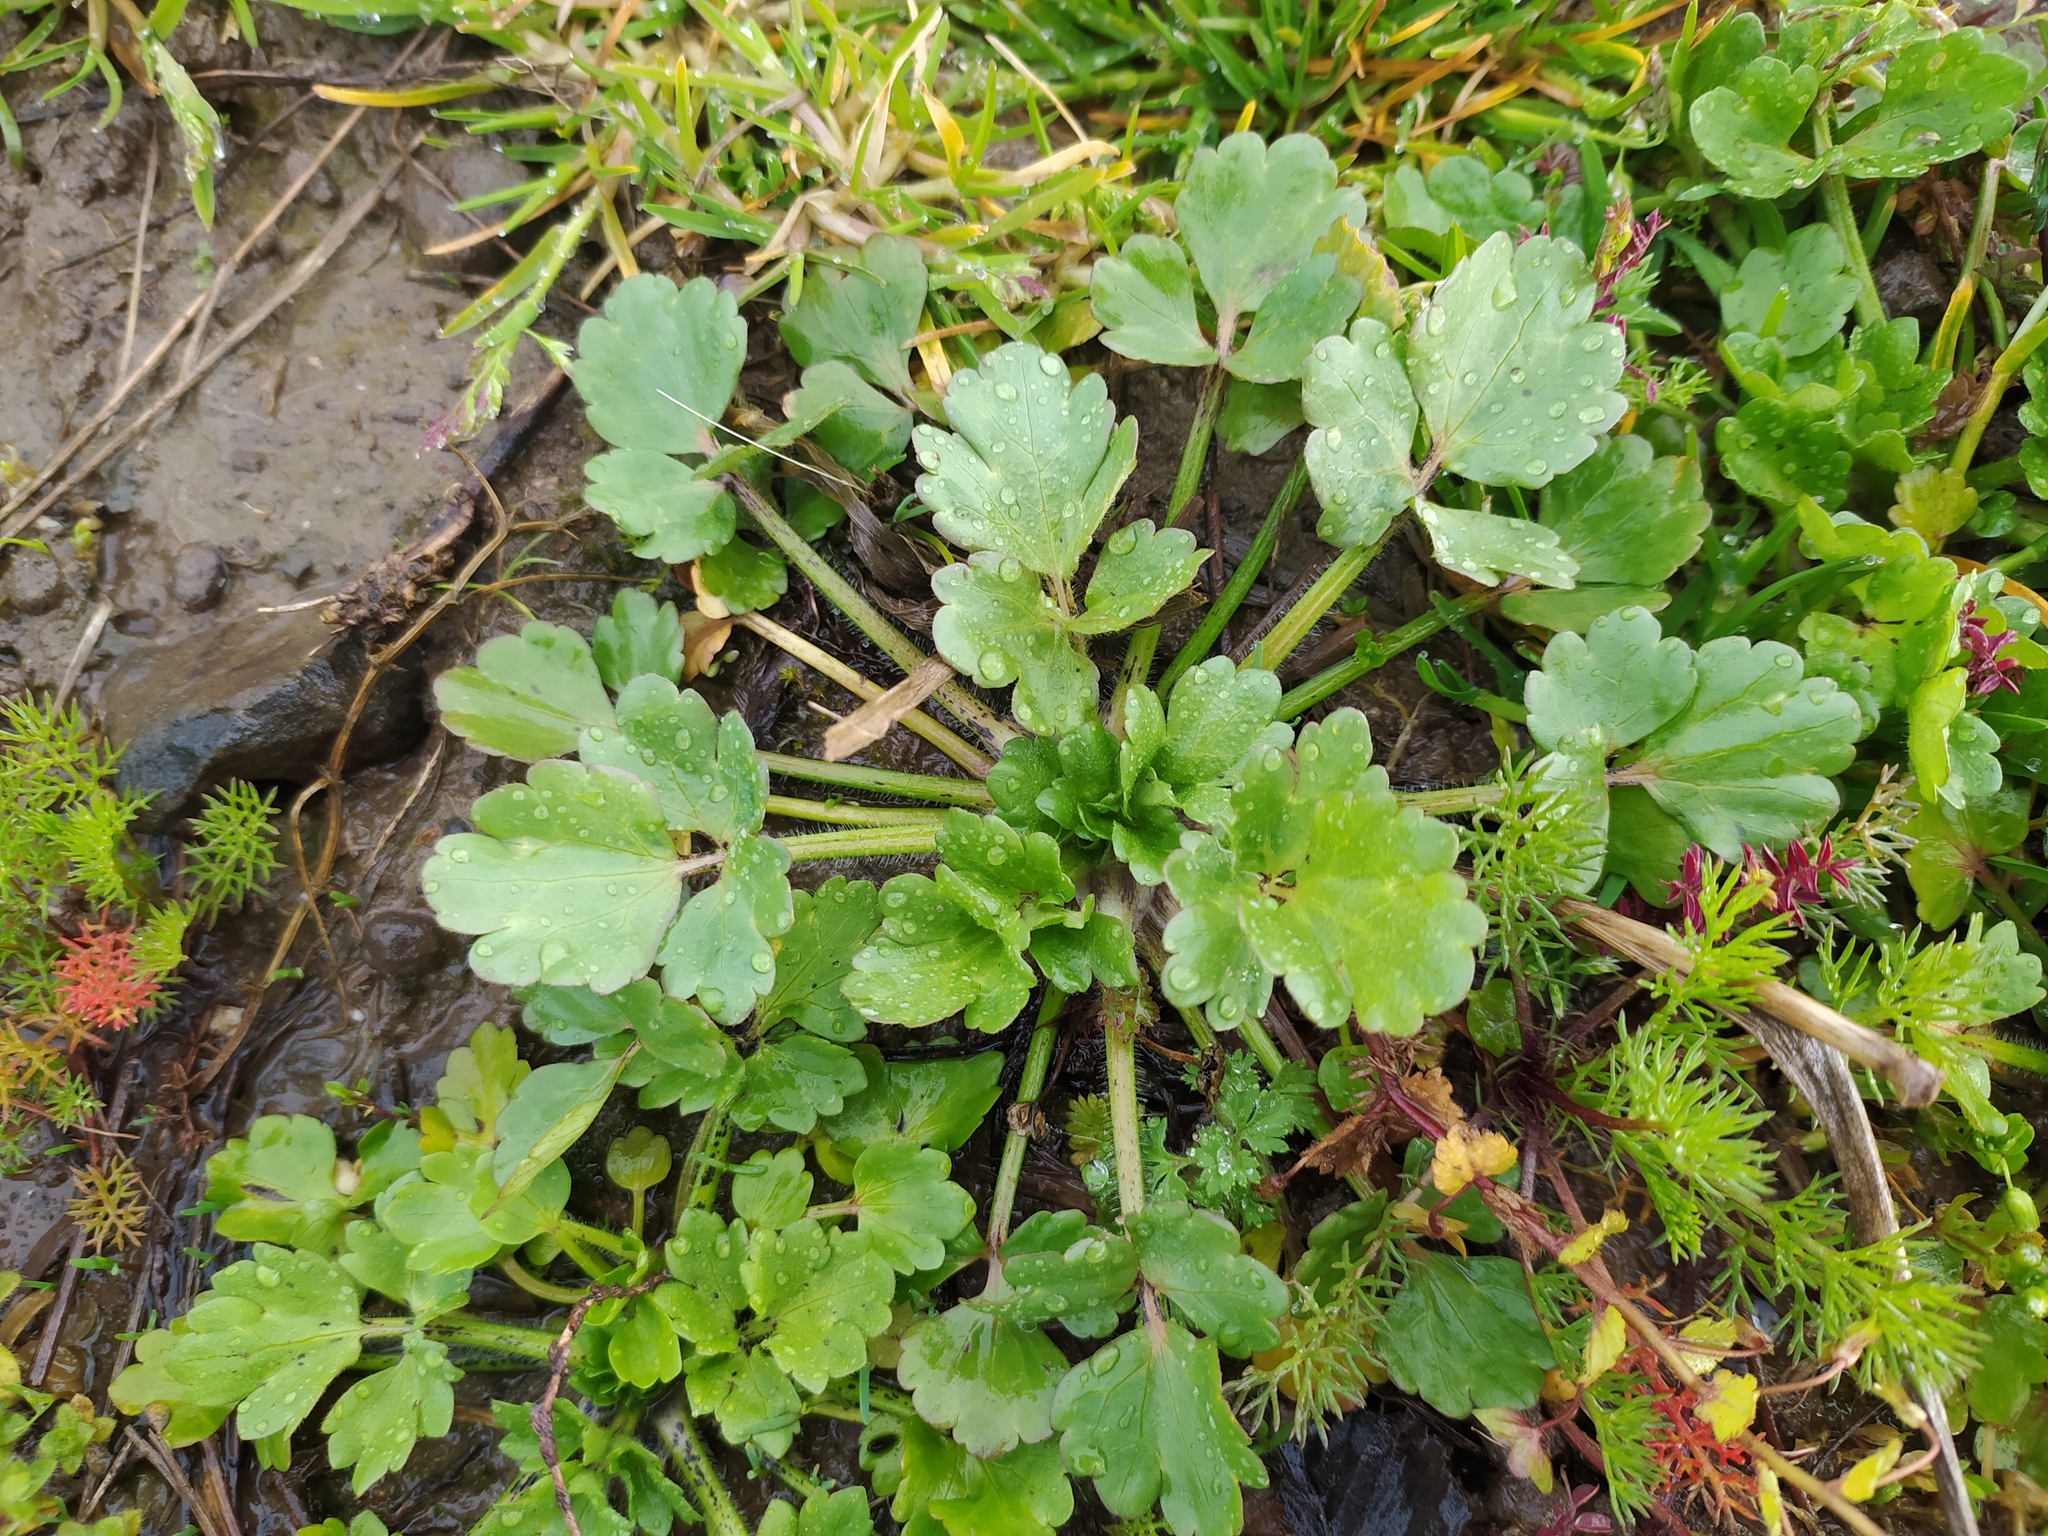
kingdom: Plantae
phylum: Tracheophyta
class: Magnoliopsida
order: Ranunculales
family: Ranunculaceae
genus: Ranunculus
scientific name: Ranunculus sardous
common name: Hairy buttercup
